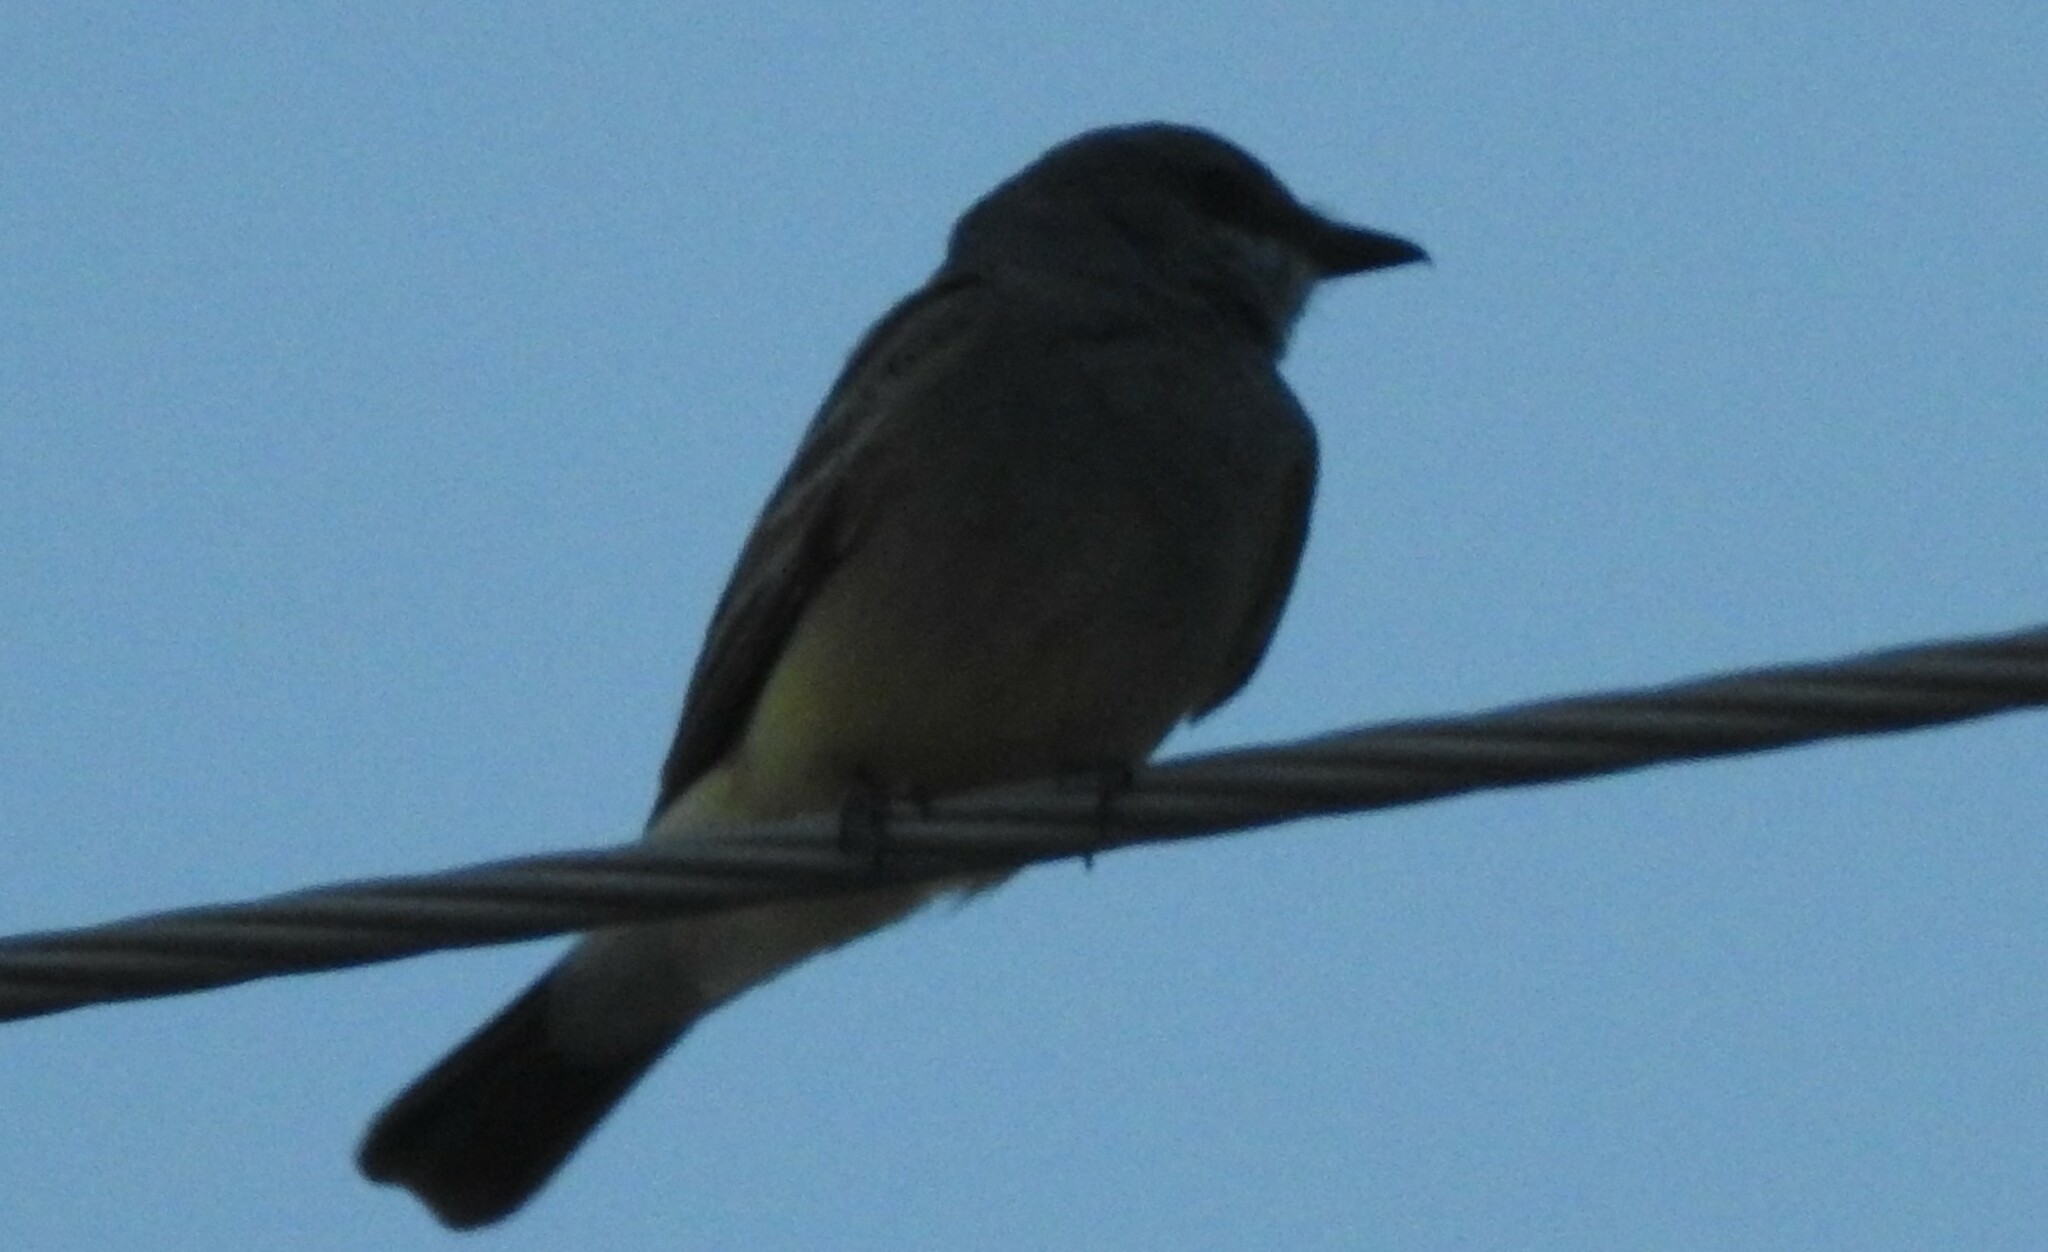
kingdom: Animalia
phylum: Chordata
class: Aves
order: Passeriformes
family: Tyrannidae
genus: Tyrannus
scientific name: Tyrannus vociferans
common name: Cassin's kingbird
